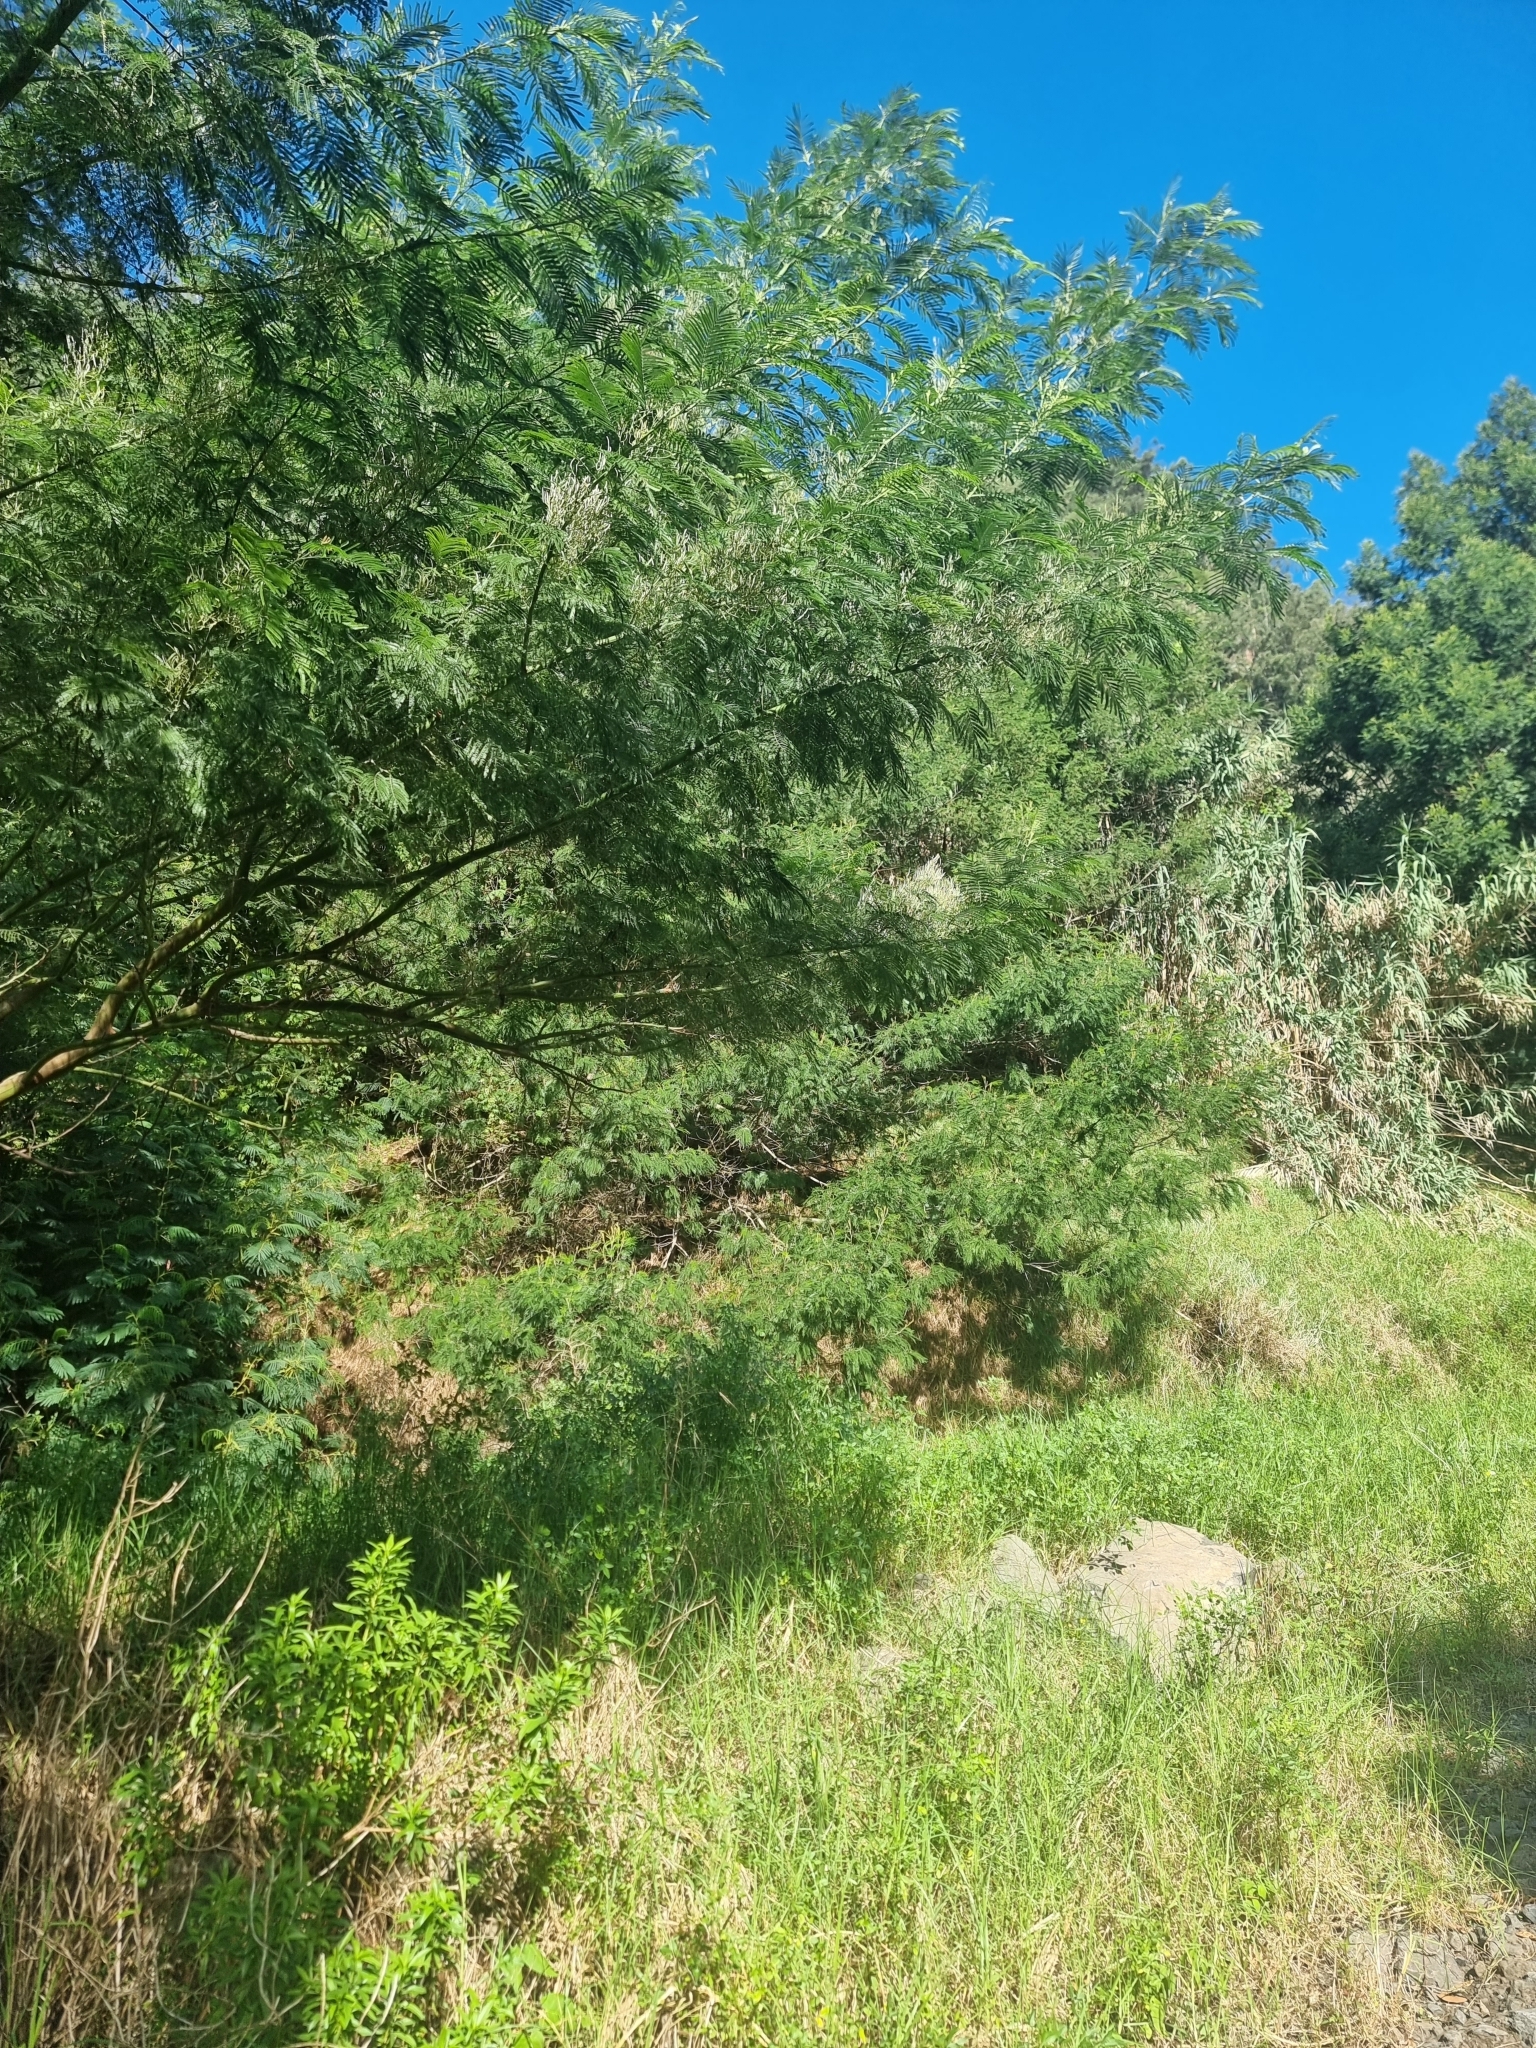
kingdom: Plantae
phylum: Tracheophyta
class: Magnoliopsida
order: Fabales
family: Fabaceae
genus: Acacia
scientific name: Acacia mearnsii
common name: Black wattle
